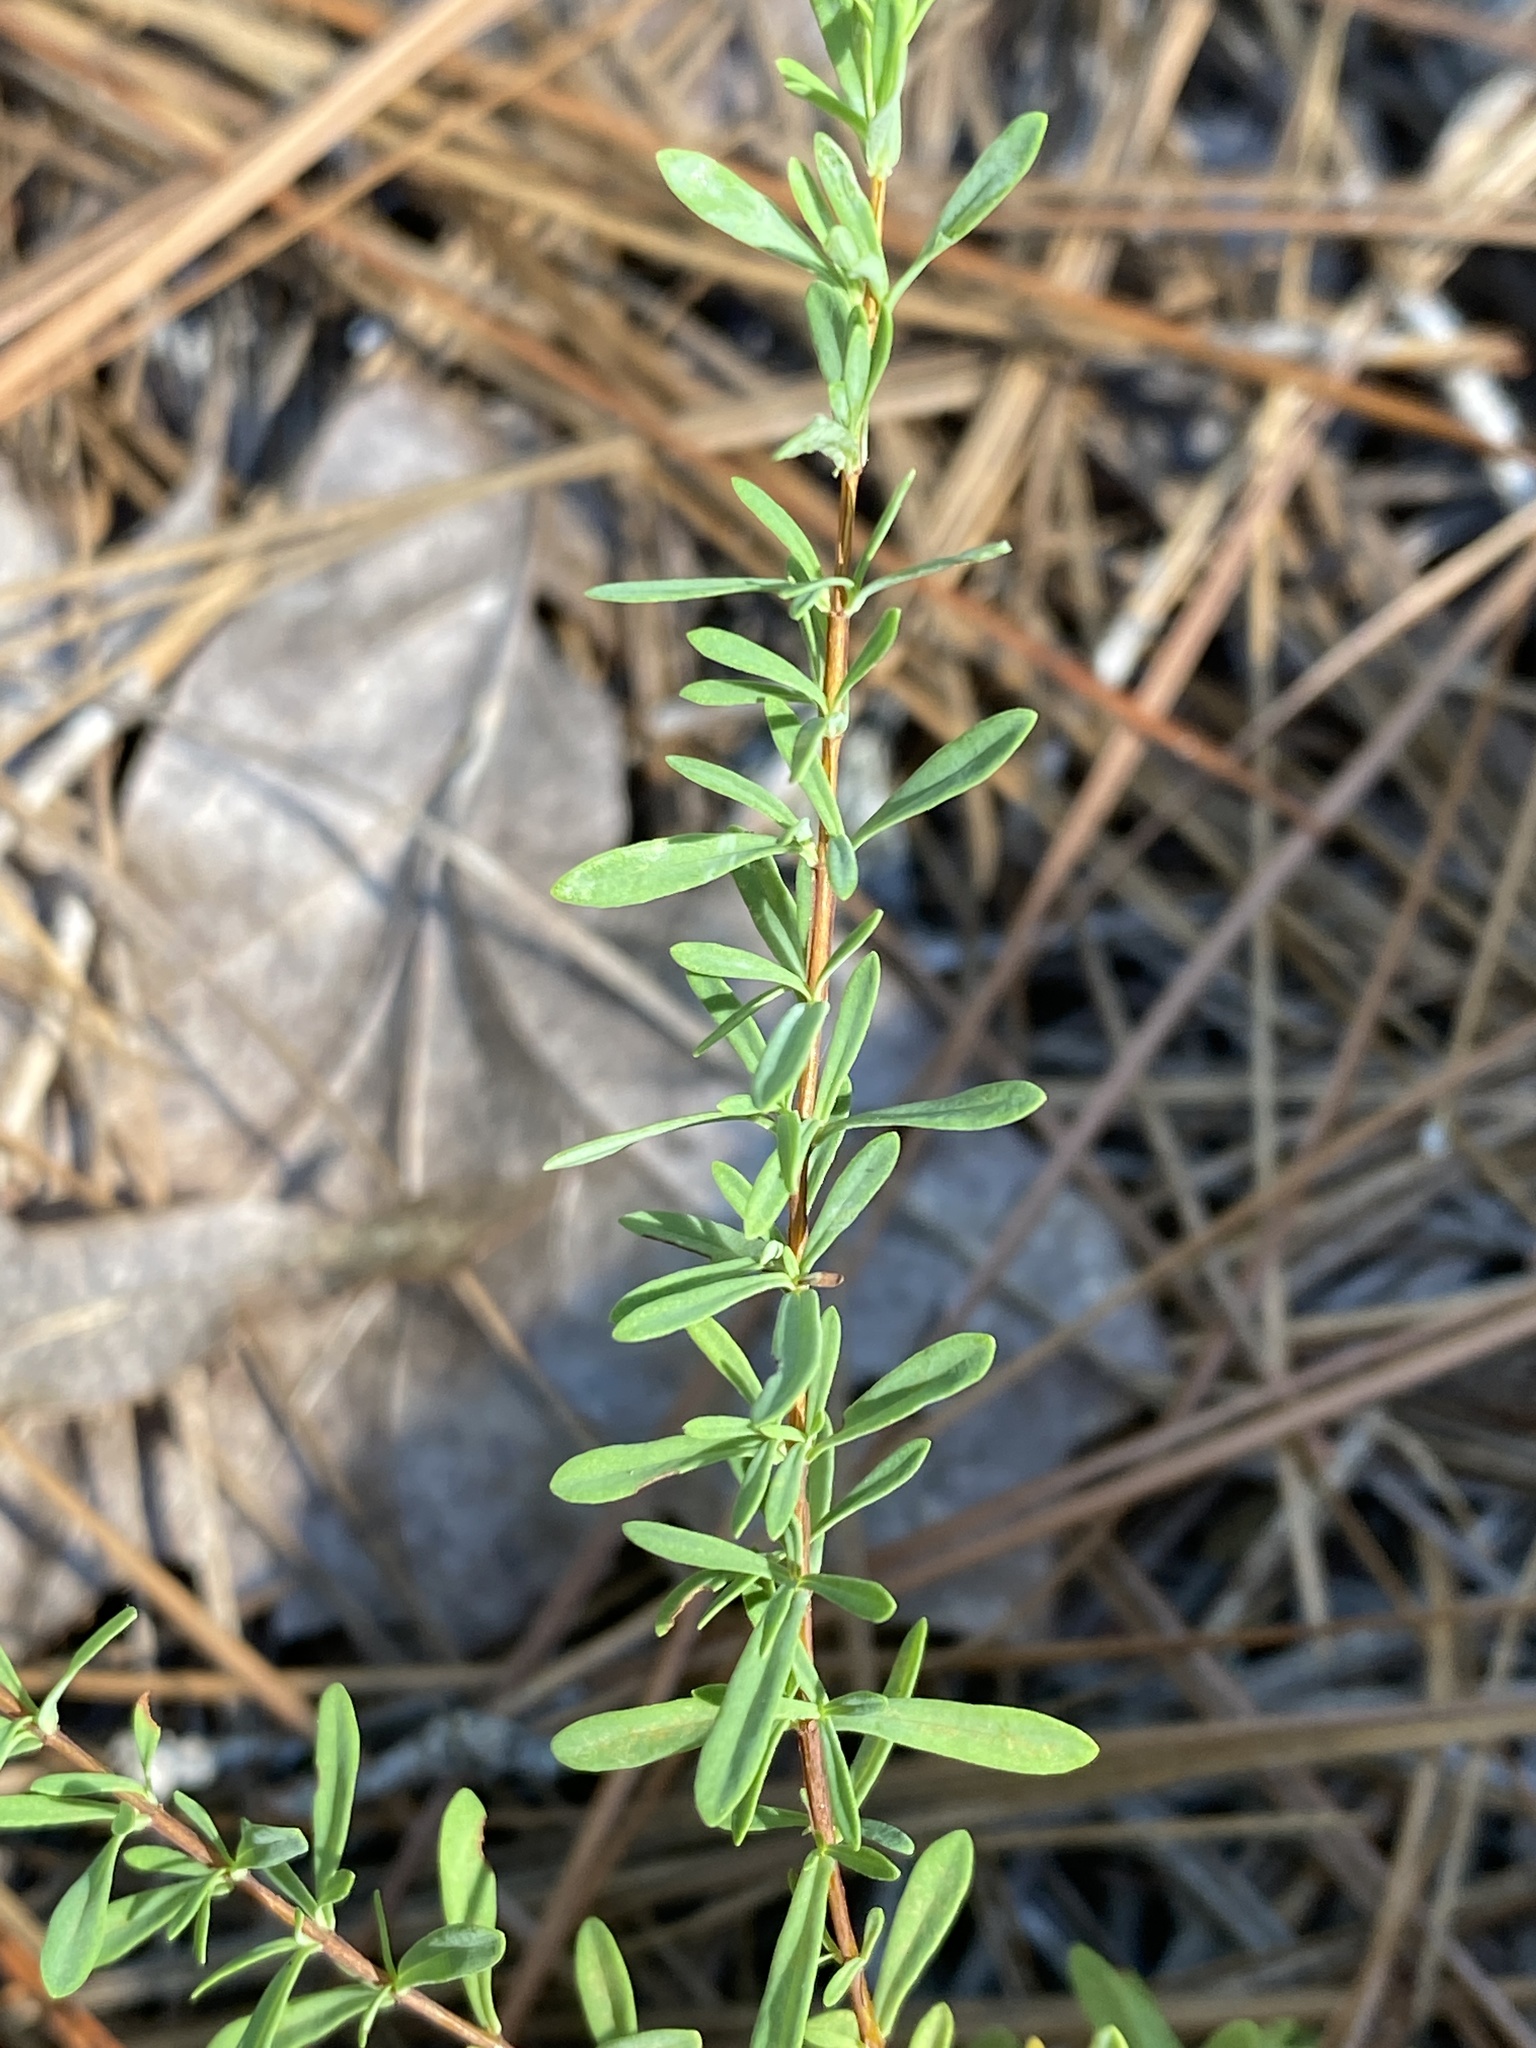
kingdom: Plantae
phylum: Tracheophyta
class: Magnoliopsida
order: Malpighiales
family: Hypericaceae
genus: Hypericum
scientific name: Hypericum hypericoides
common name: St. andrew's cross
